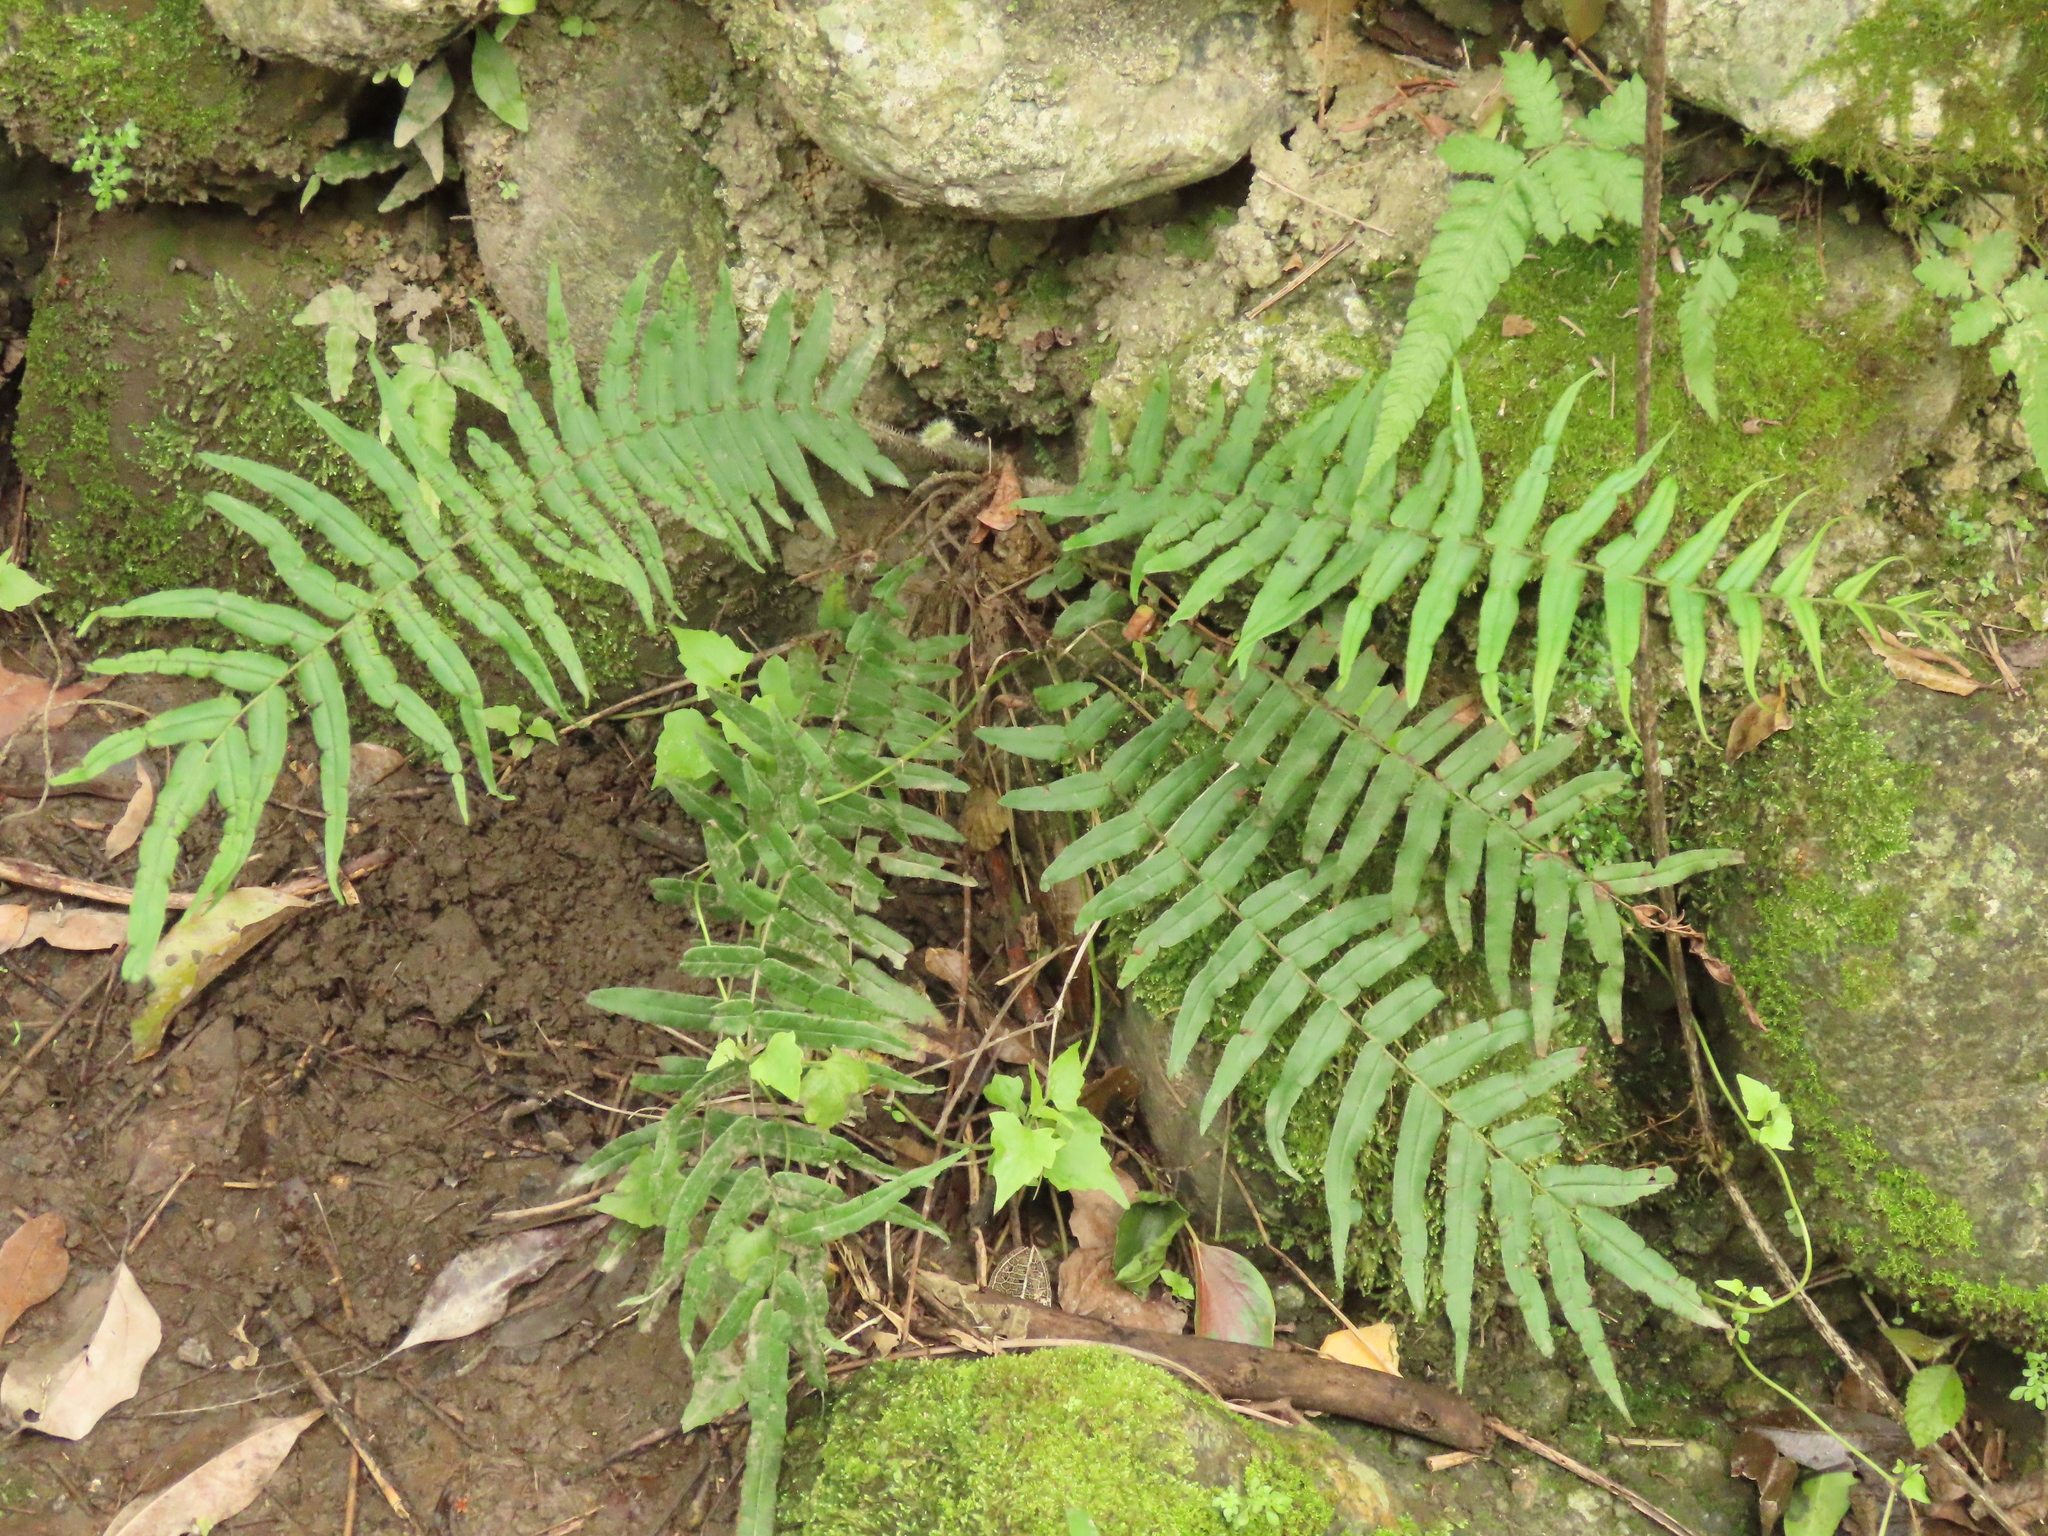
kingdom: Plantae
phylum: Tracheophyta
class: Polypodiopsida
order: Polypodiales
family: Pteridaceae
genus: Pteris
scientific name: Pteris vittata
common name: Ladder brake
